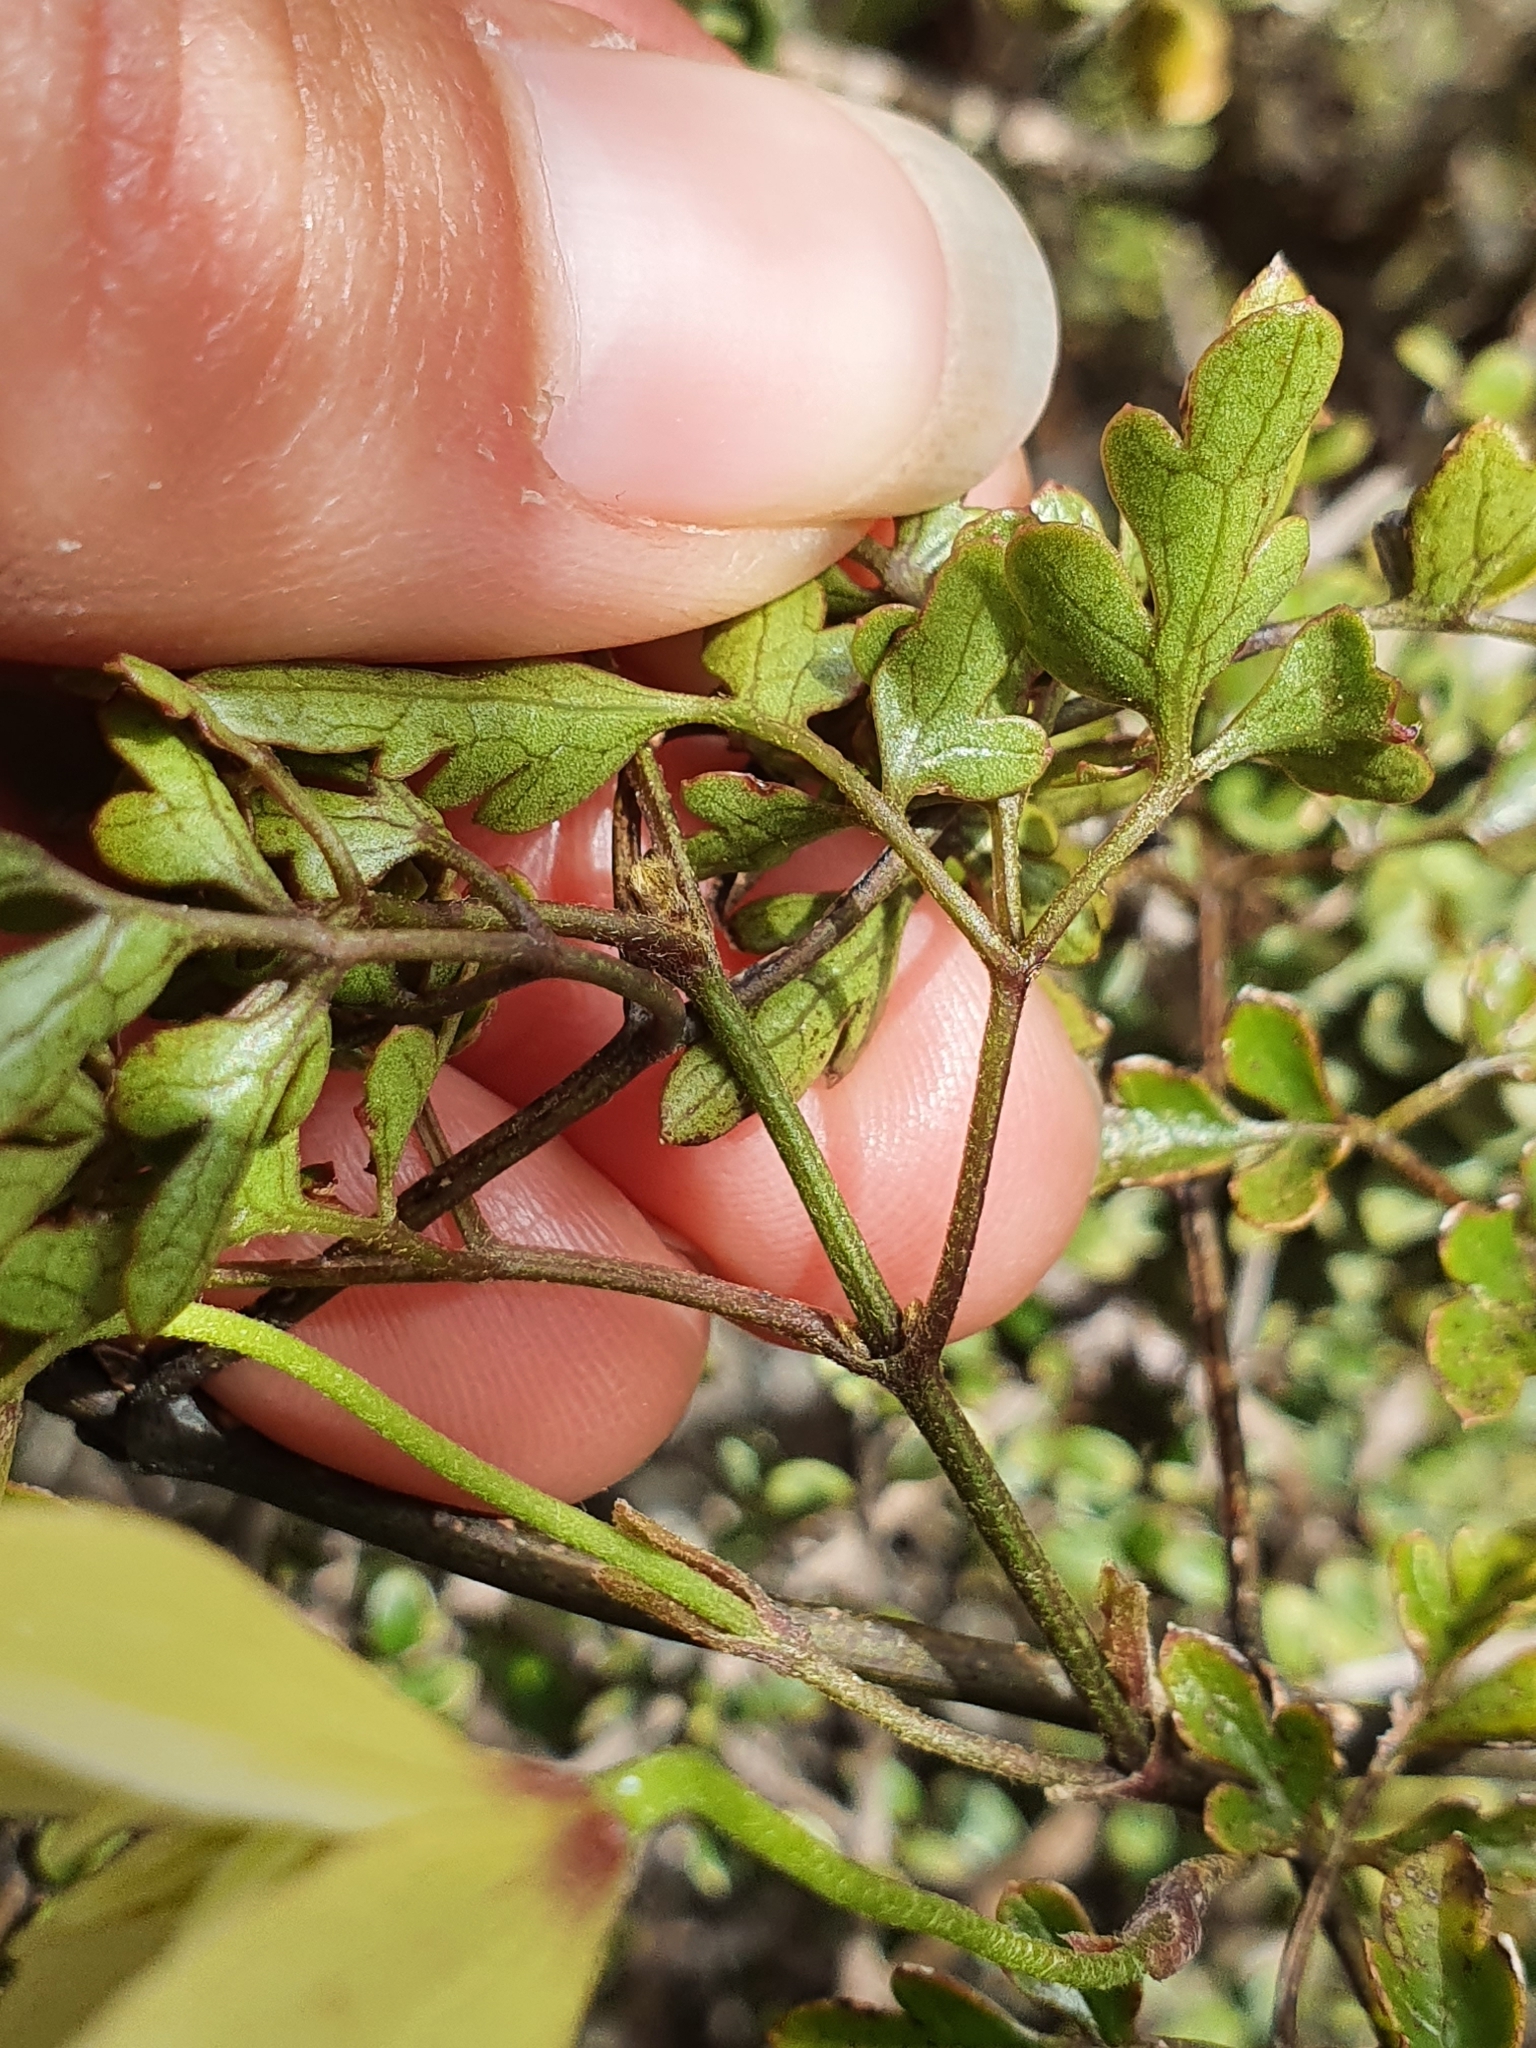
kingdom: Plantae
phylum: Tracheophyta
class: Magnoliopsida
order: Ranunculales
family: Ranunculaceae
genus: Clematis
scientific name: Clematis forsteri
